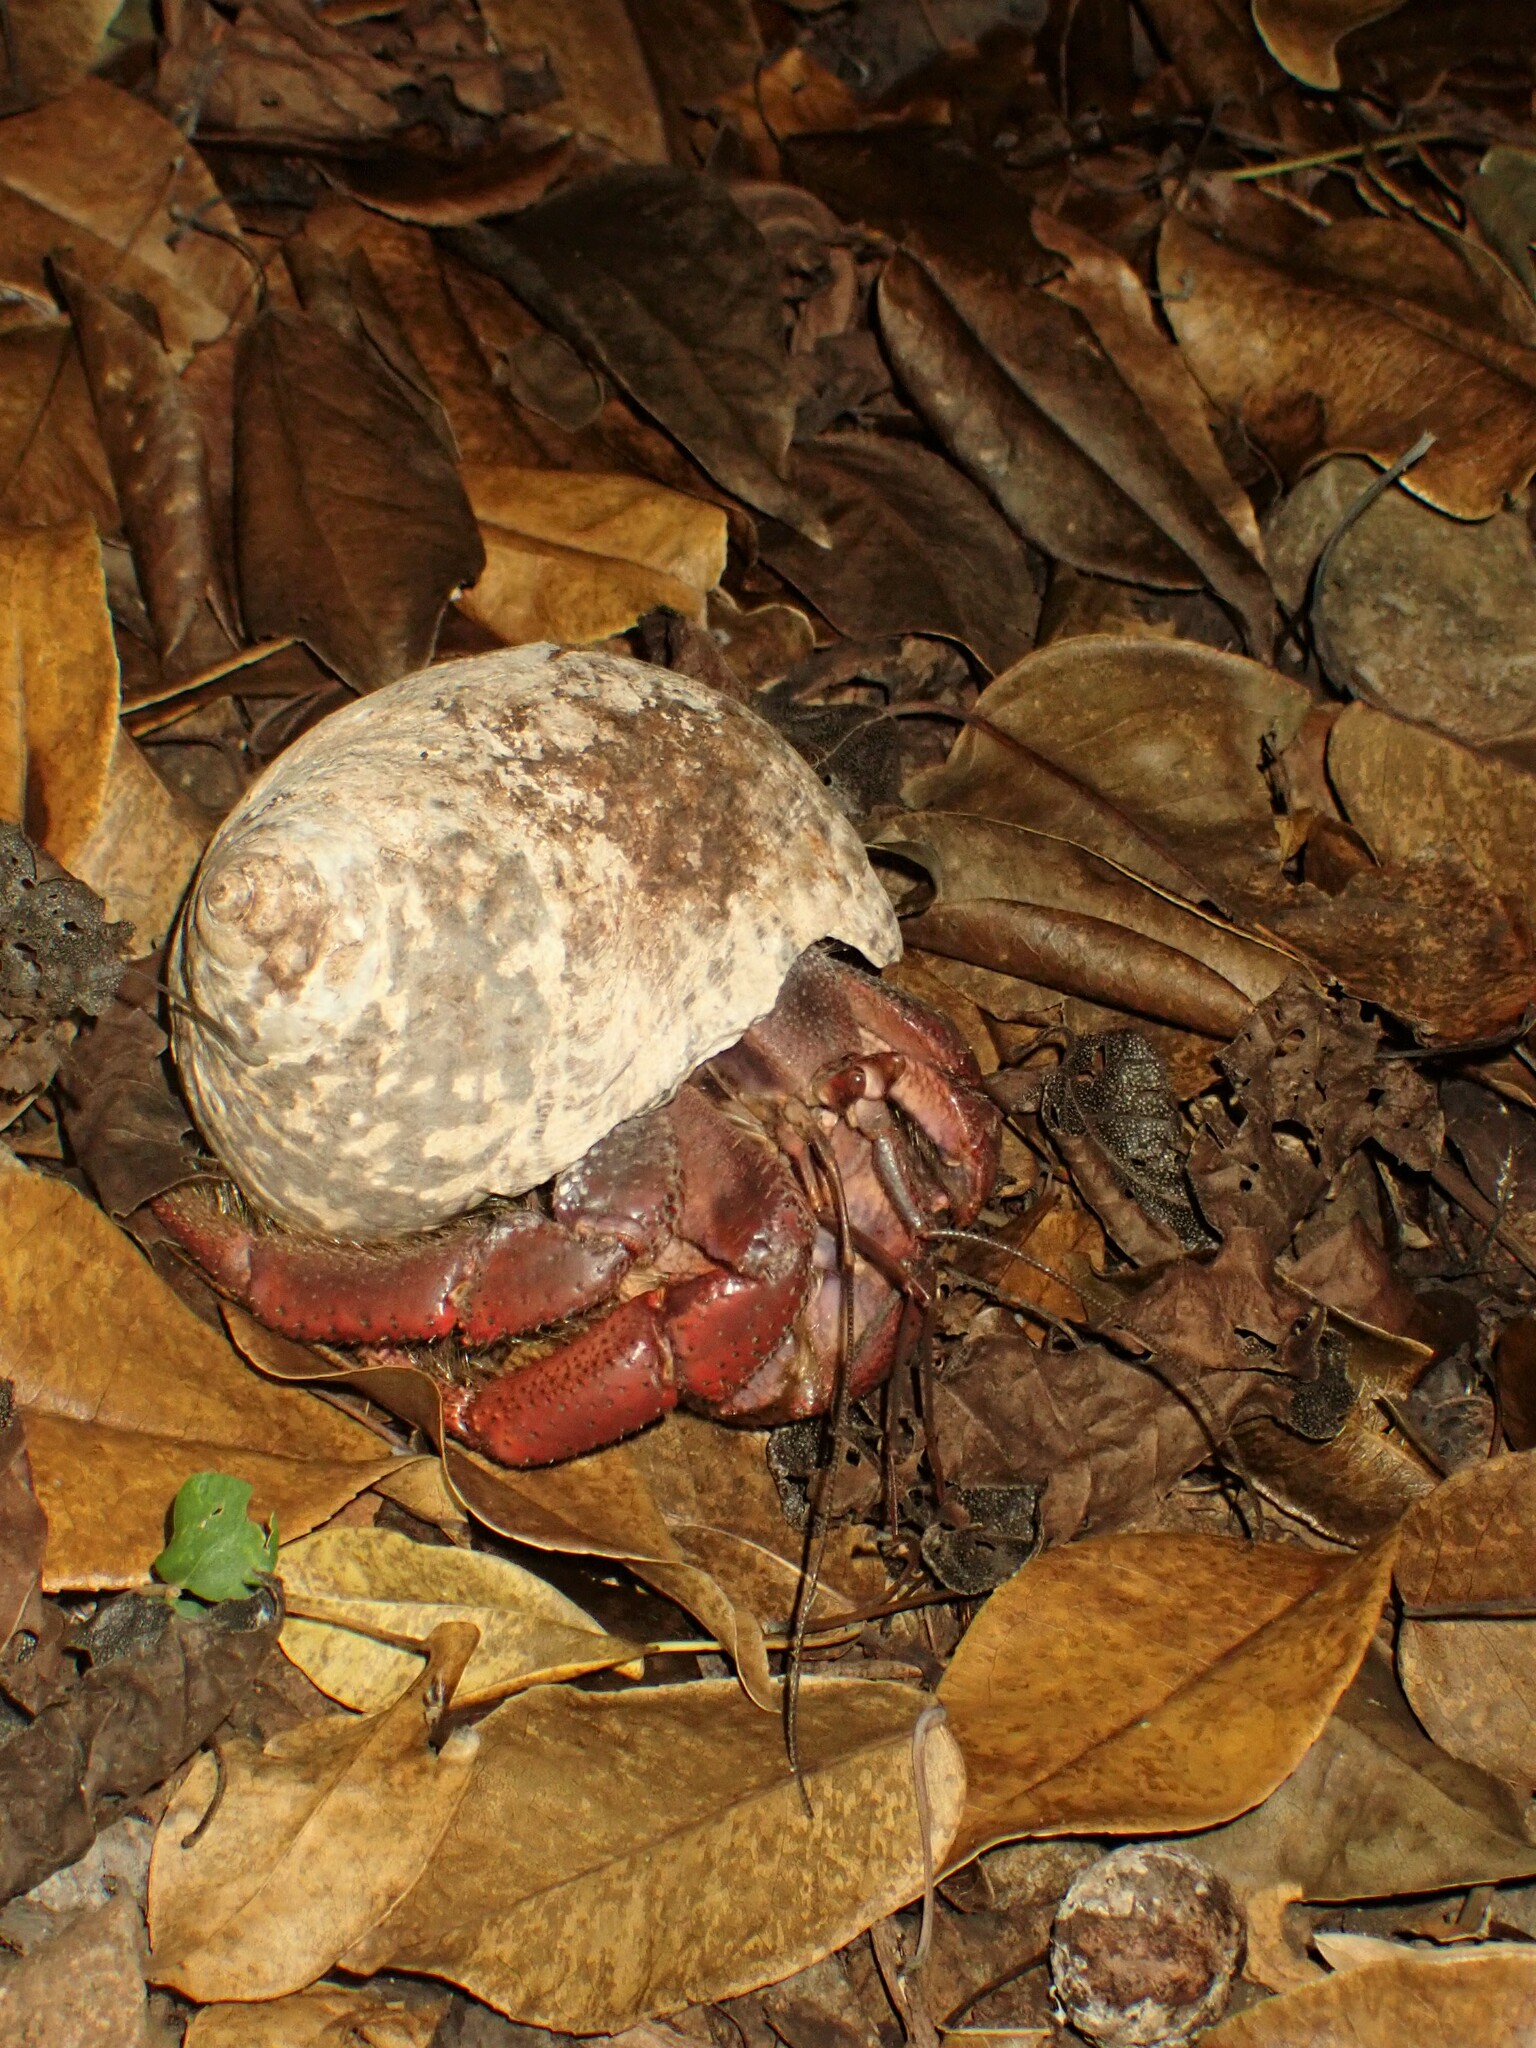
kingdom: Animalia
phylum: Arthropoda
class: Malacostraca
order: Decapoda
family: Coenobitidae
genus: Coenobita
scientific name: Coenobita clypeatus
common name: Caribbean hermit crab
